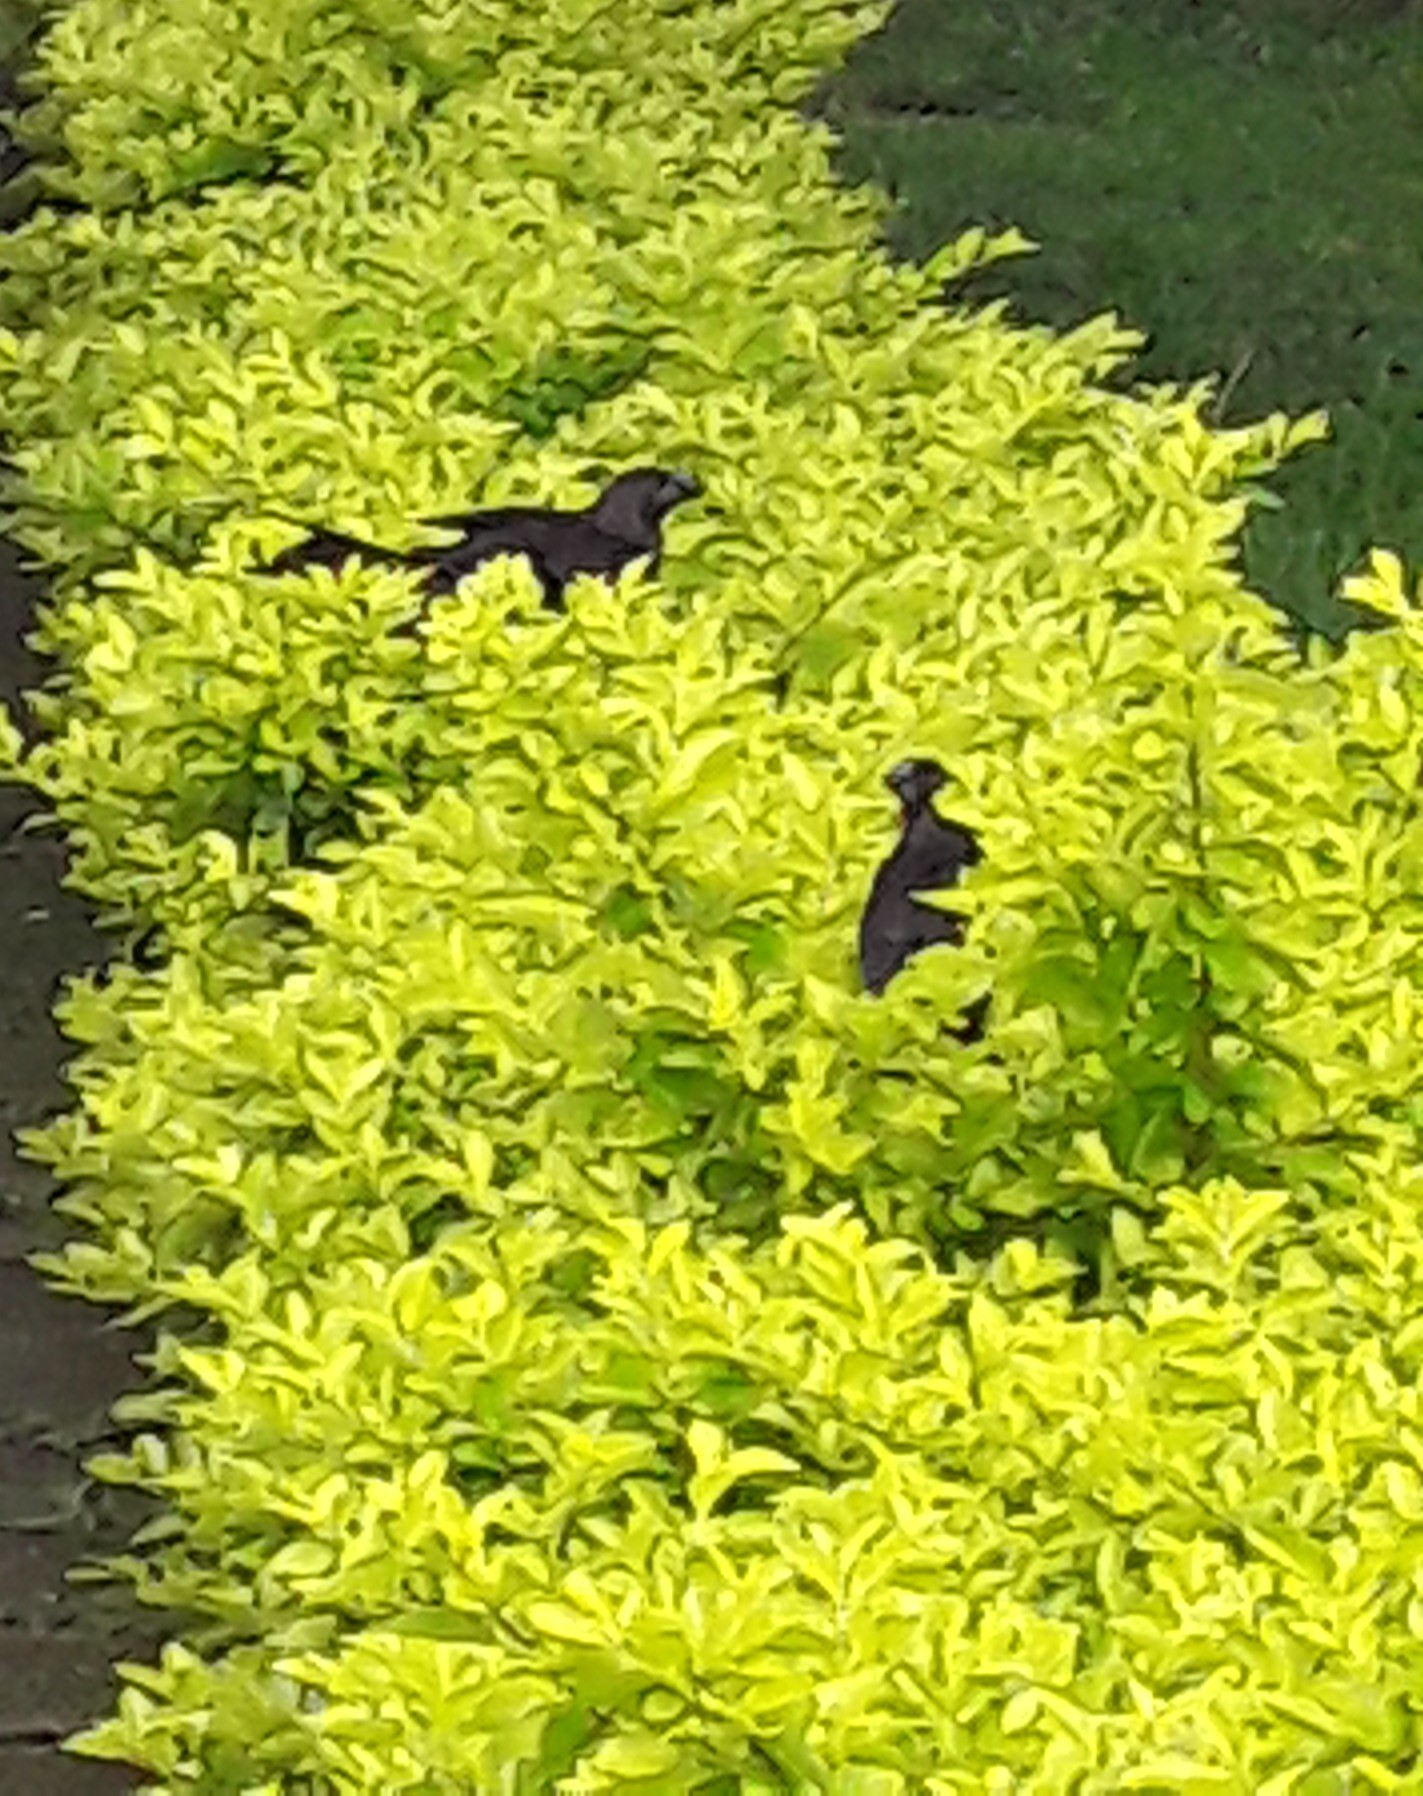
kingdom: Animalia
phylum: Chordata
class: Aves
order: Cuculiformes
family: Cuculidae
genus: Crotophaga
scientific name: Crotophaga ani
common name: Smooth-billed ani
